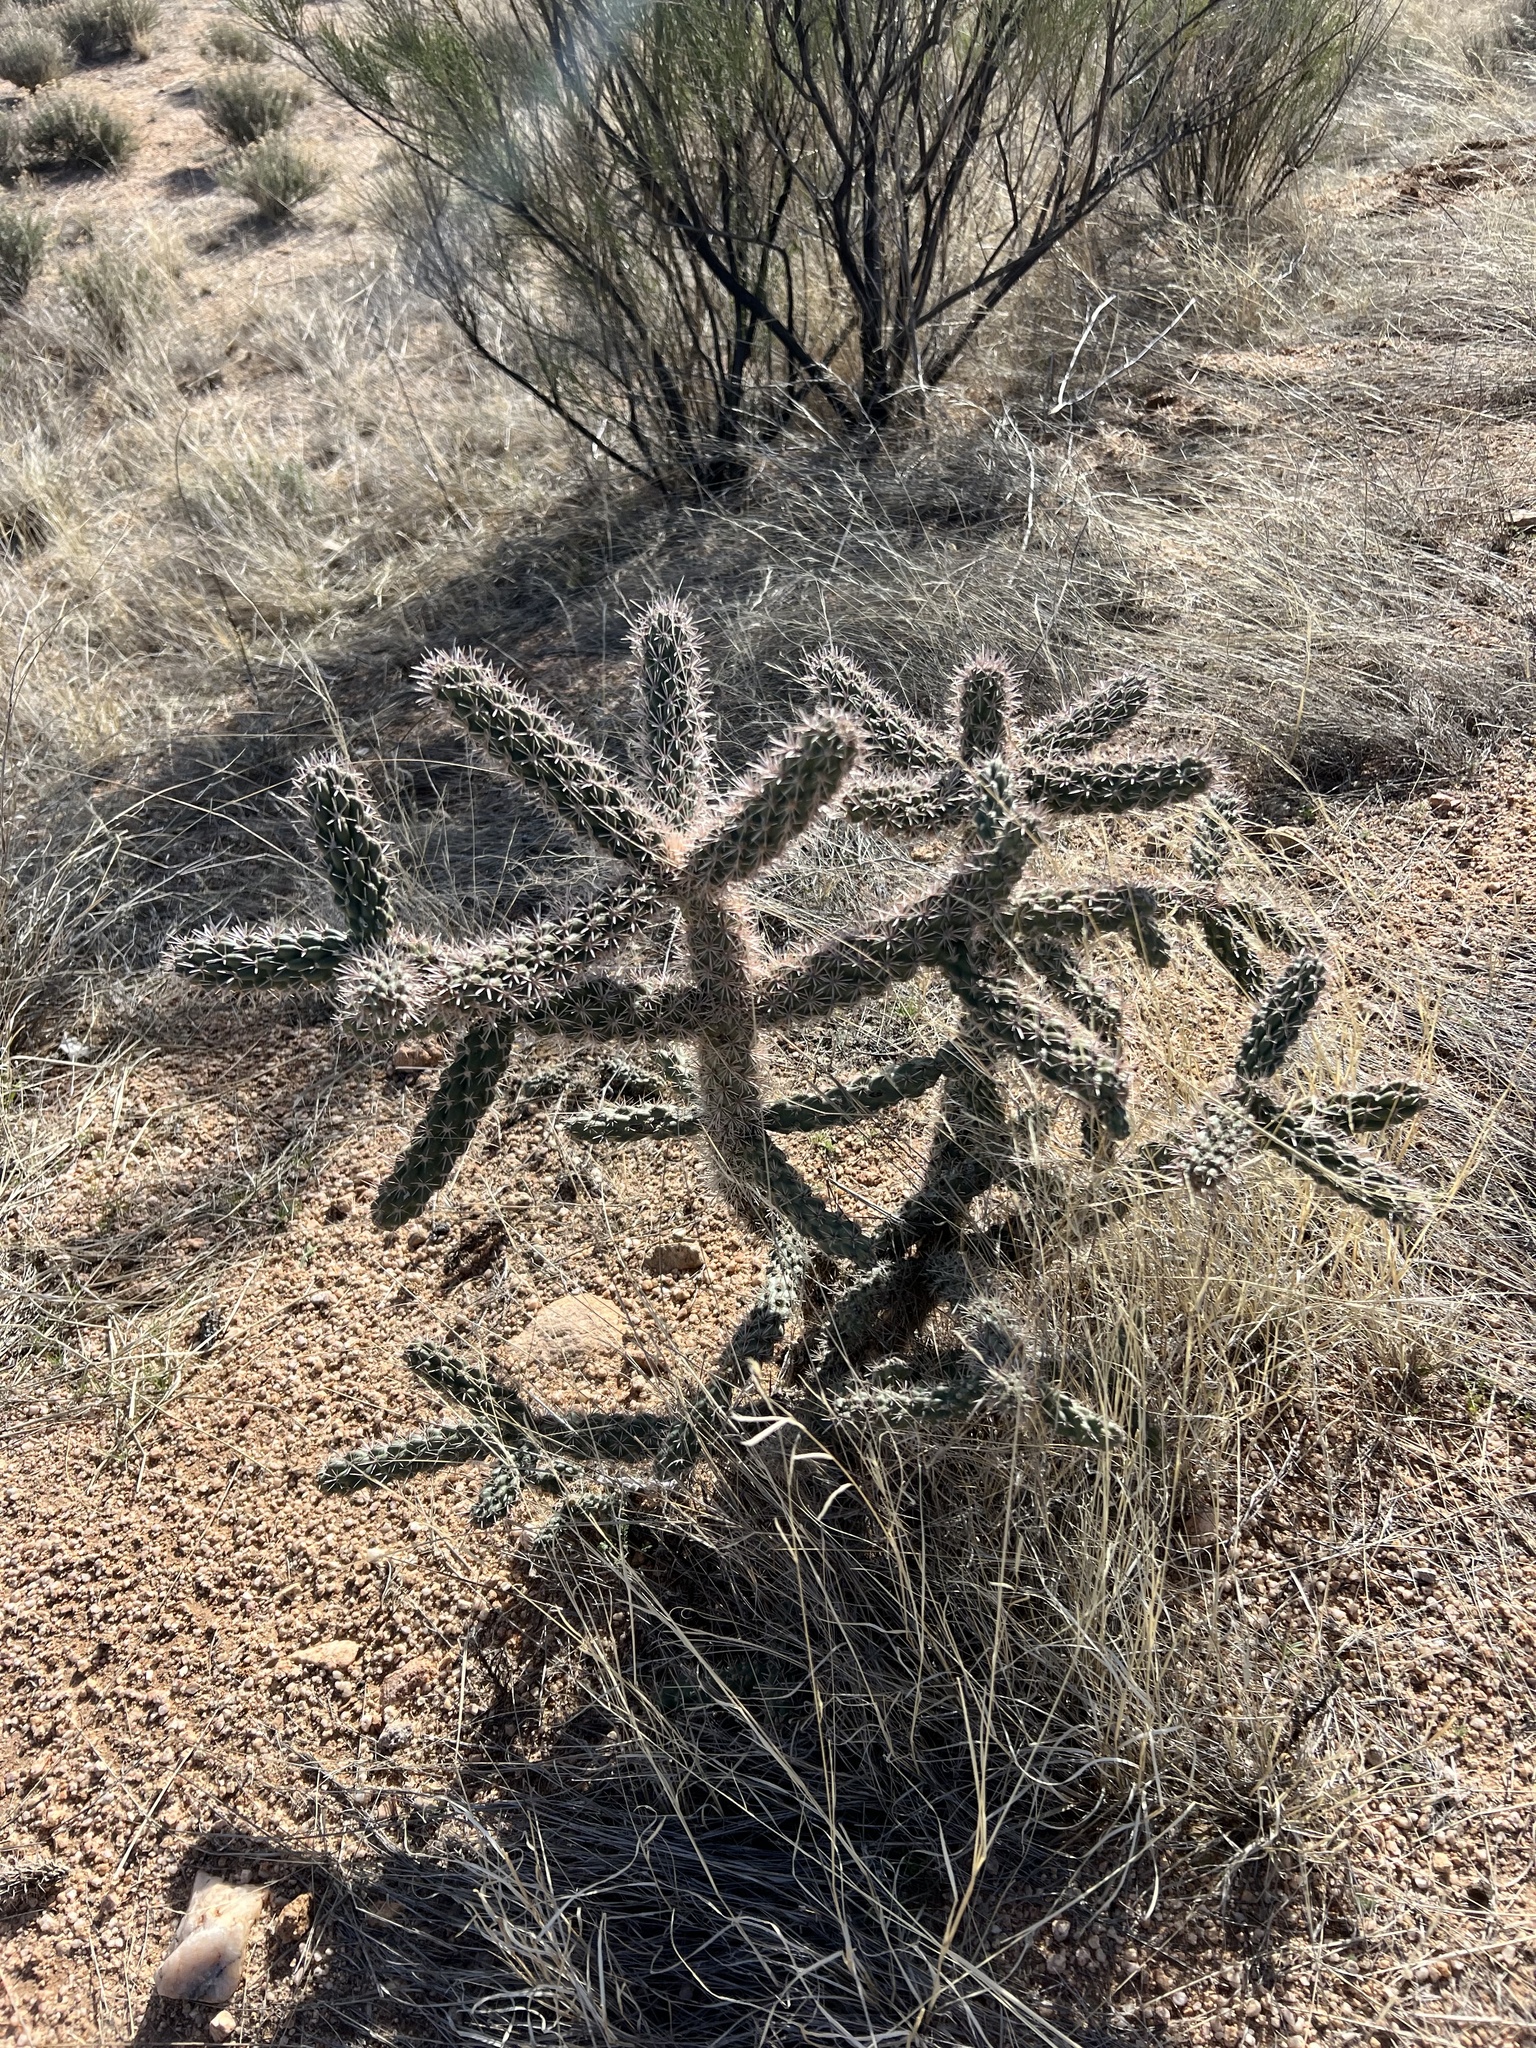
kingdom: Plantae
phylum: Tracheophyta
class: Magnoliopsida
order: Caryophyllales
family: Cactaceae
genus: Cylindropuntia
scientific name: Cylindropuntia imbricata
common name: Candelabrum cactus
